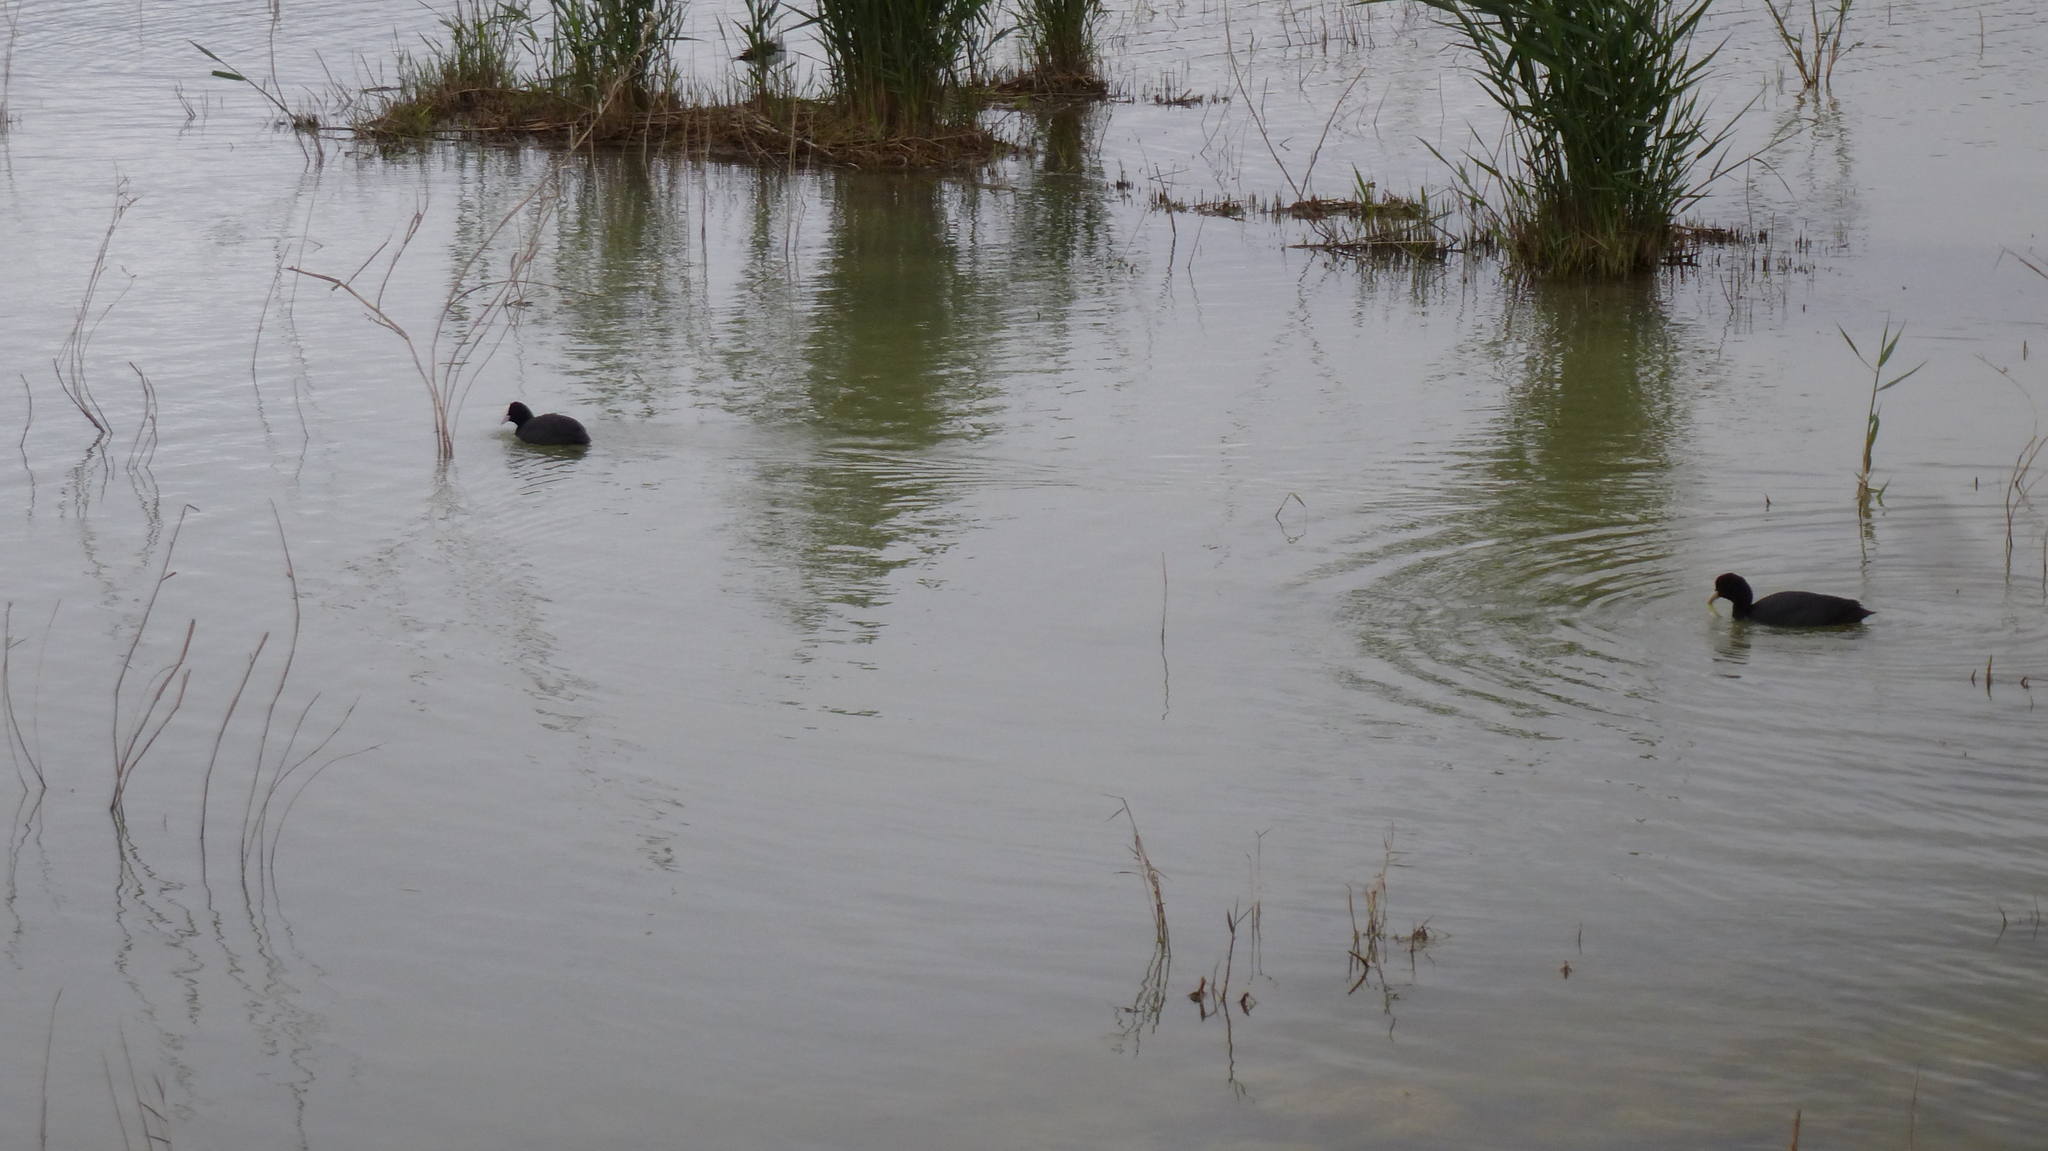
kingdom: Animalia
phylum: Chordata
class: Aves
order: Gruiformes
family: Rallidae
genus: Fulica
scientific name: Fulica atra
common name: Eurasian coot
